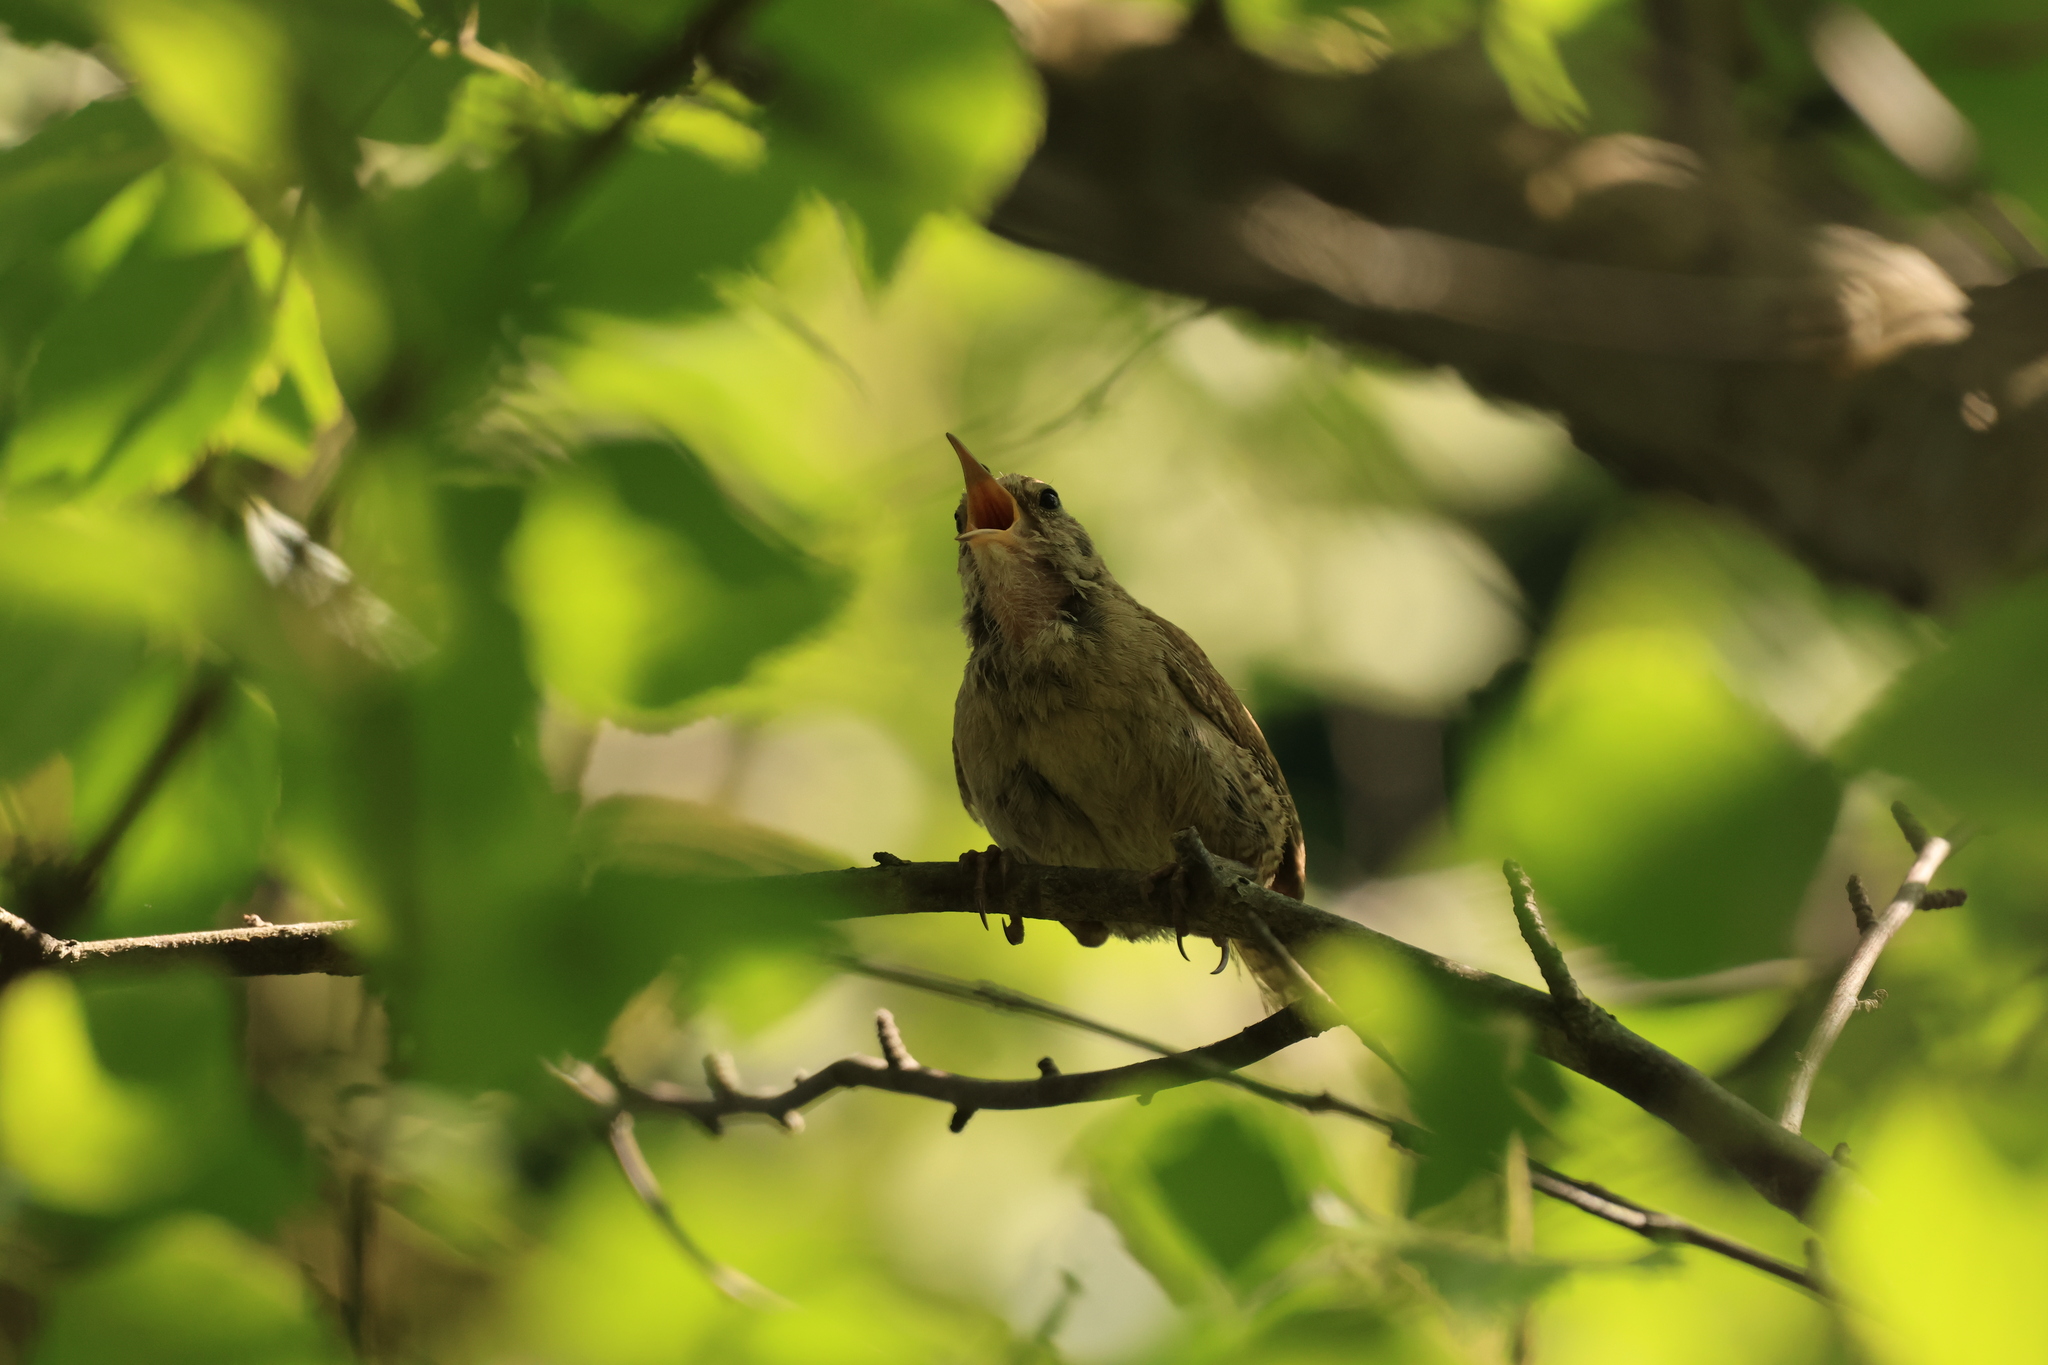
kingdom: Animalia
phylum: Chordata
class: Aves
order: Passeriformes
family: Troglodytidae
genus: Troglodytes
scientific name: Troglodytes troglodytes
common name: Eurasian wren
